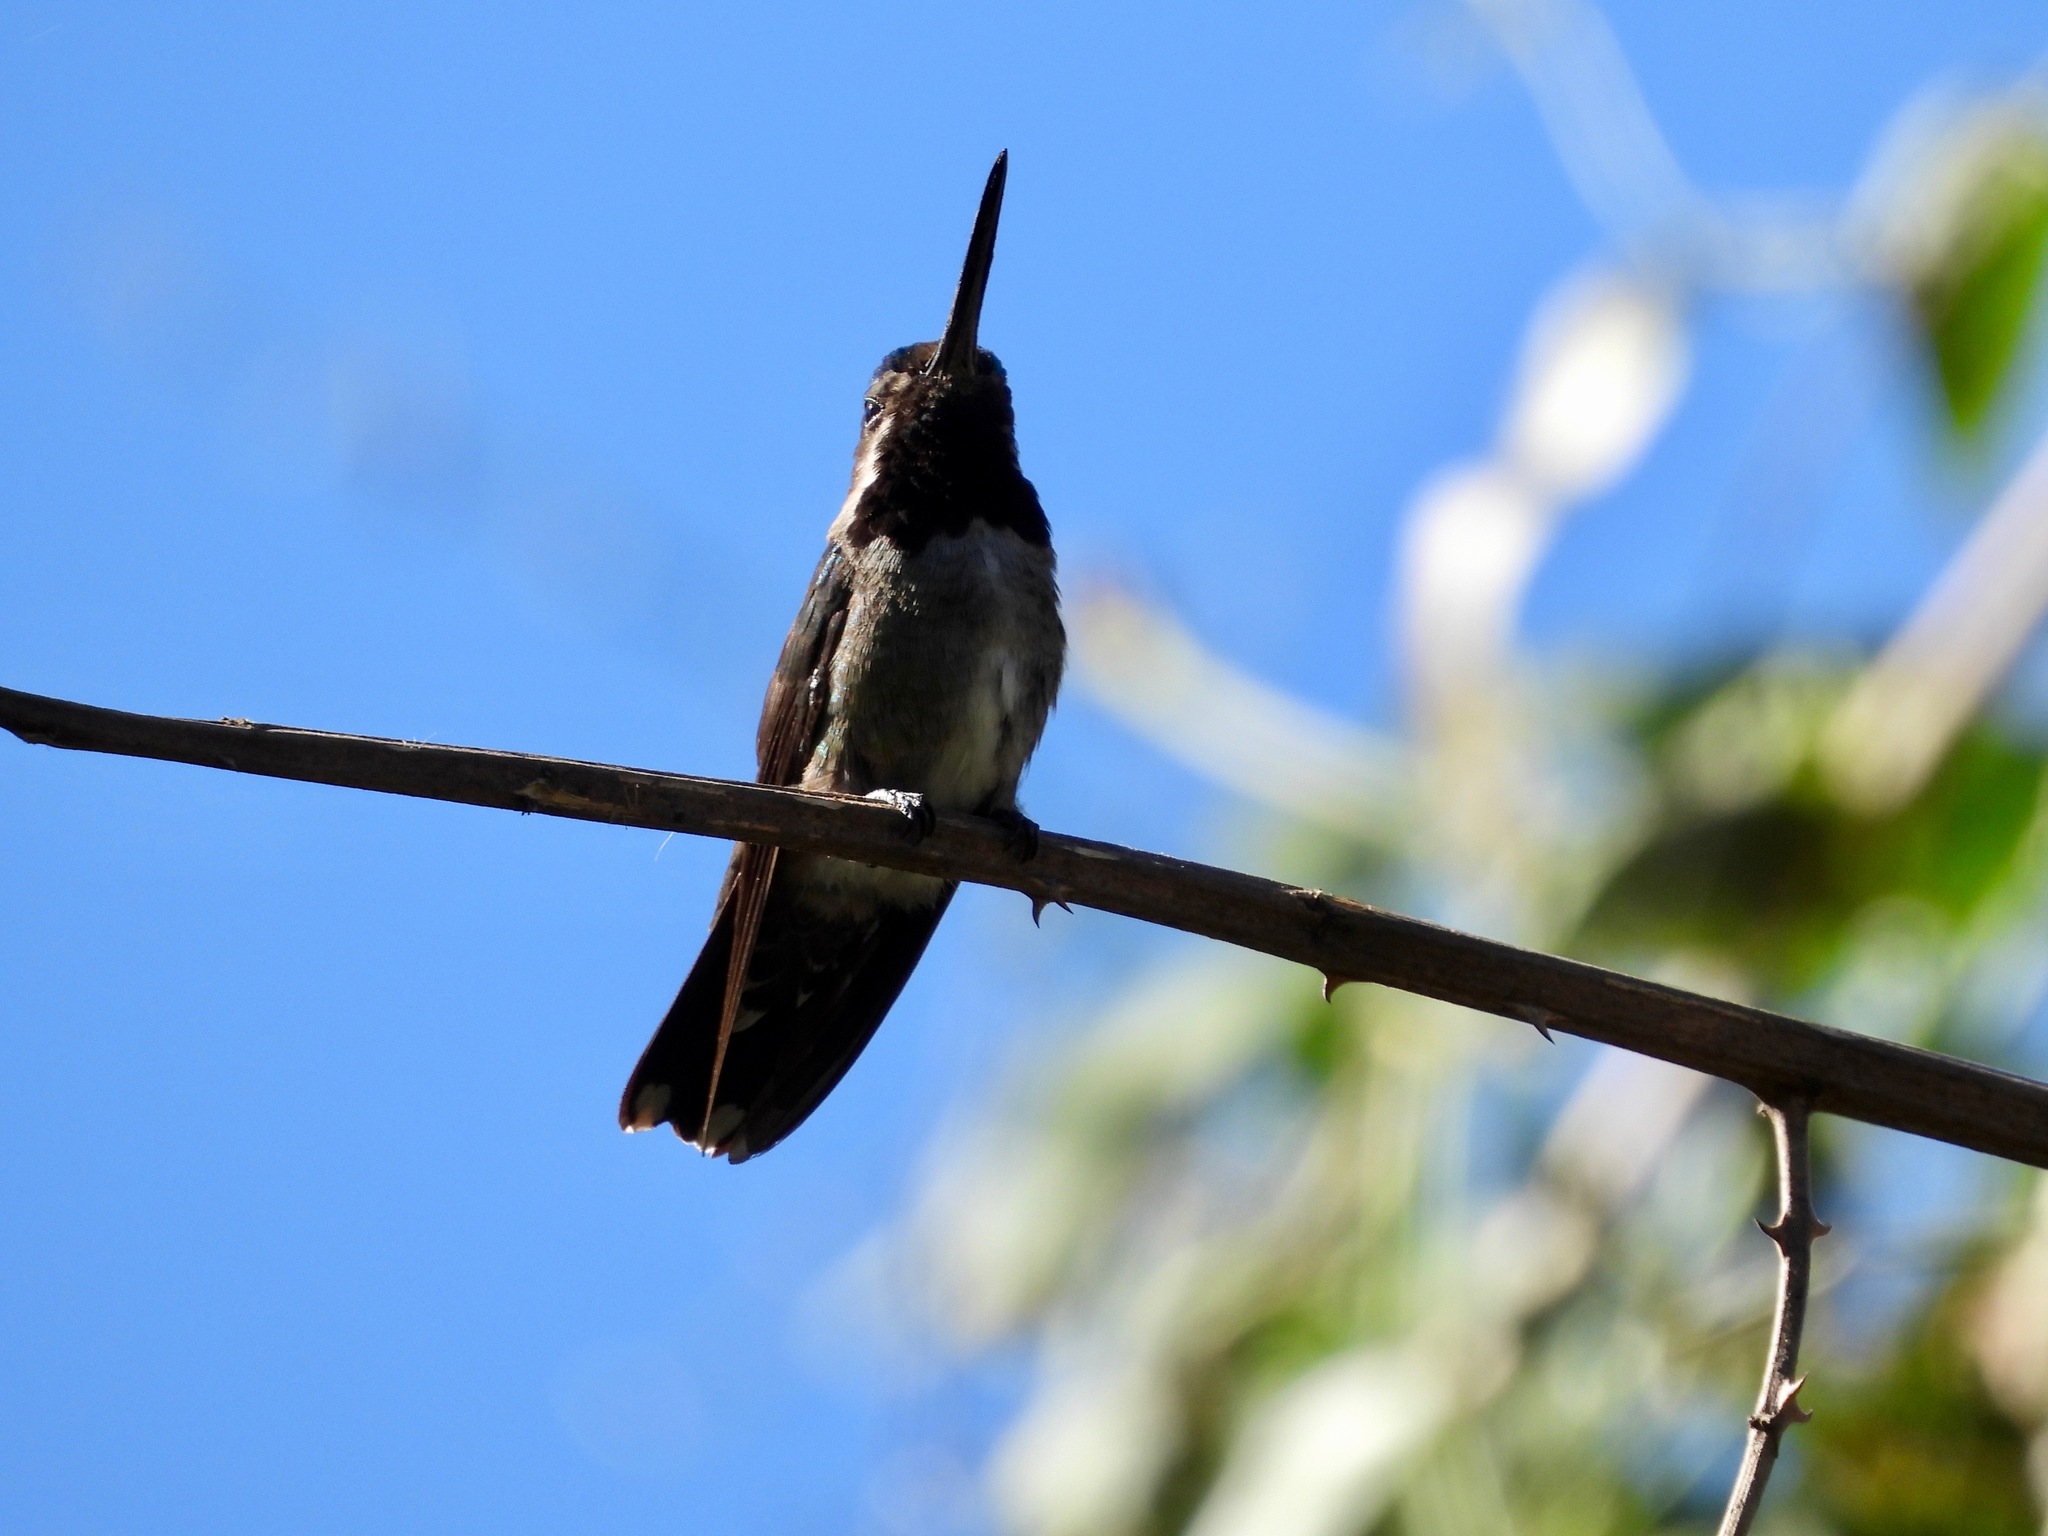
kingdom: Animalia
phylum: Chordata
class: Aves
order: Apodiformes
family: Trochilidae
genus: Heliomaster
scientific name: Heliomaster longirostris
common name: Long-billed starthroat
